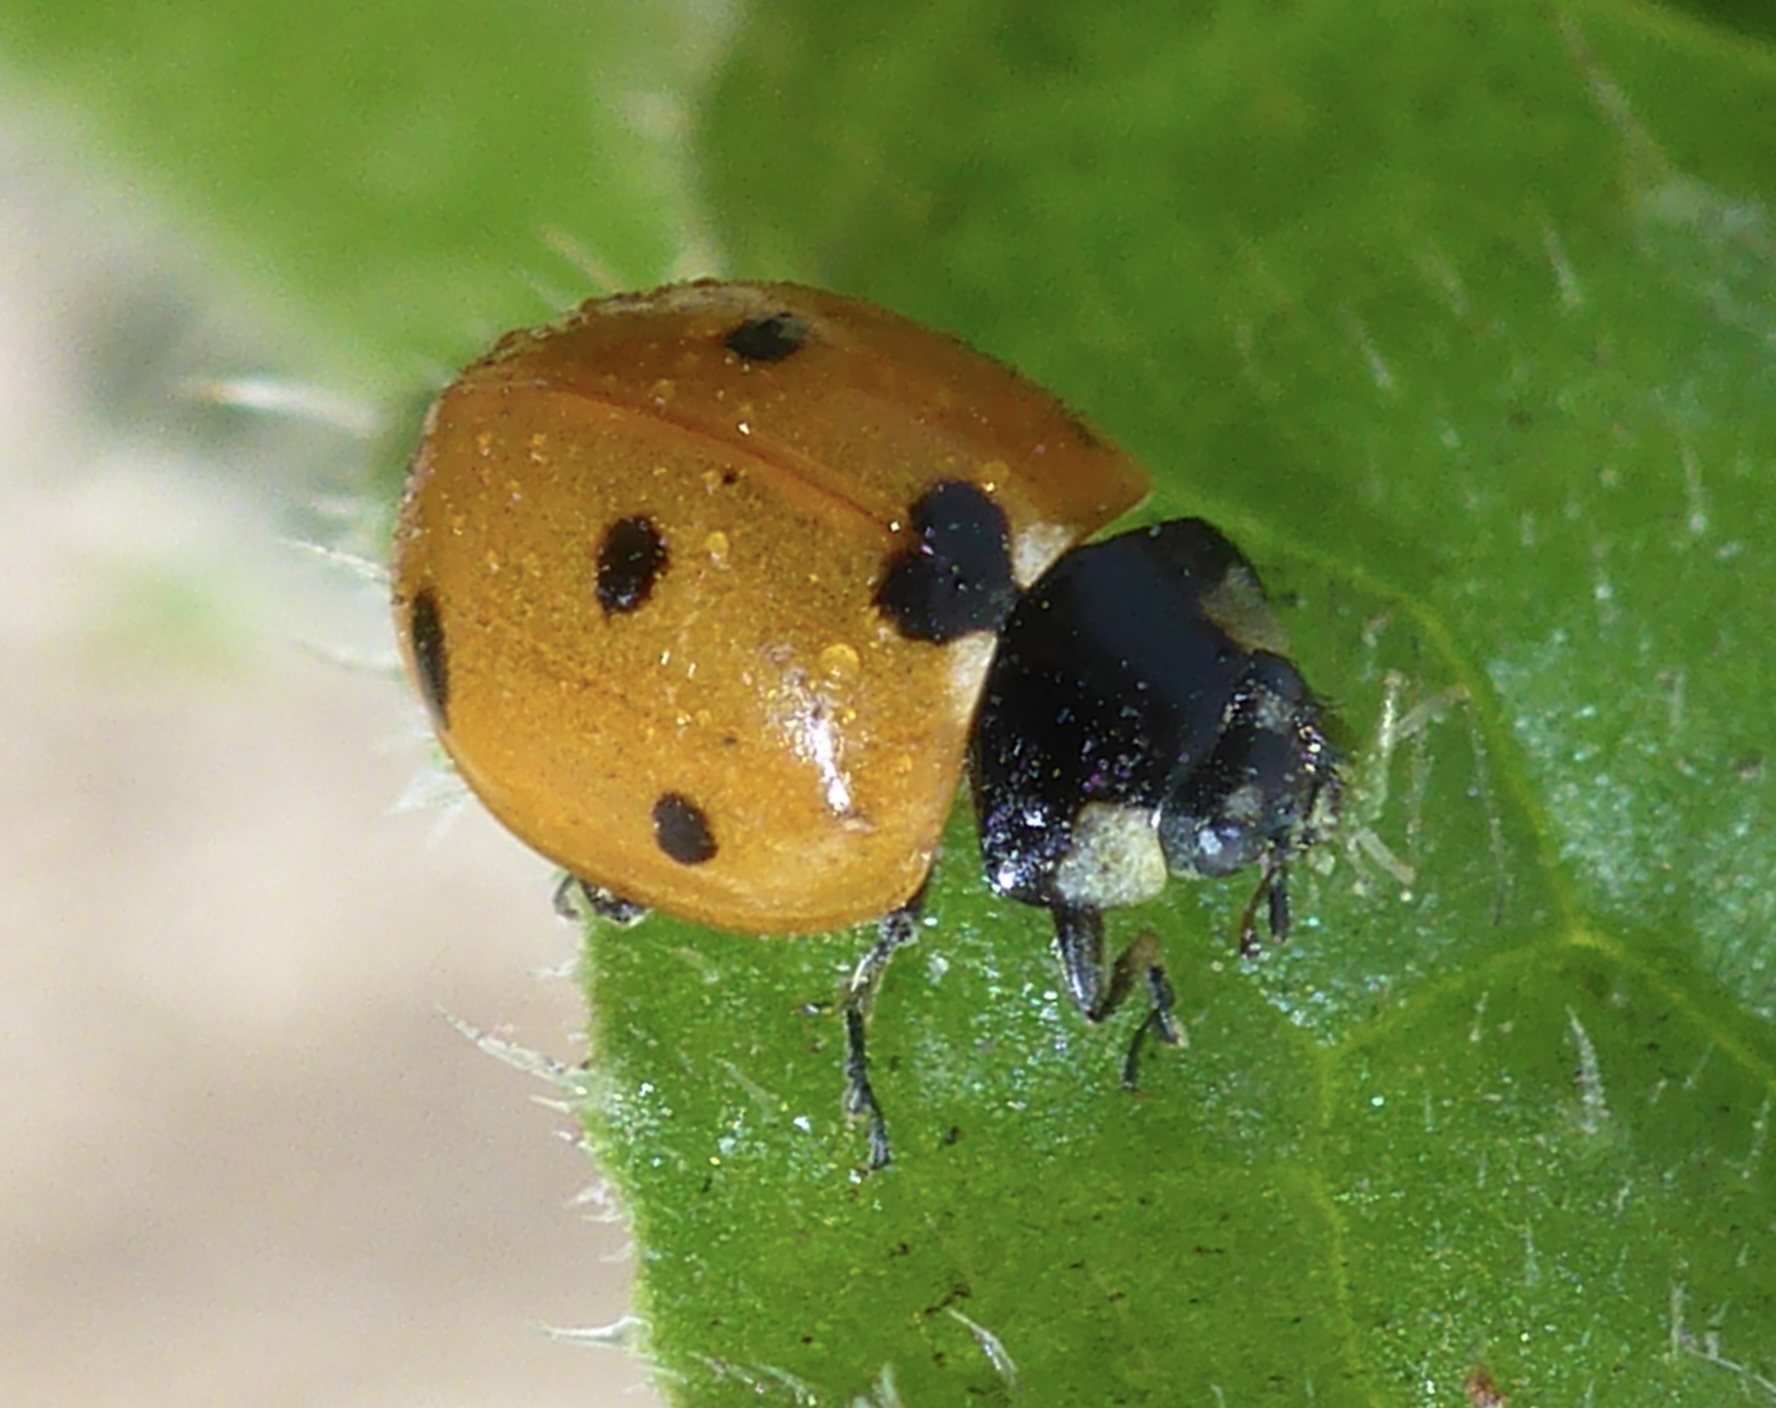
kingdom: Animalia
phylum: Arthropoda
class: Insecta
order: Coleoptera
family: Coccinellidae
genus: Coccinella
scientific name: Coccinella septempunctata
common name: Sevenspotted lady beetle
